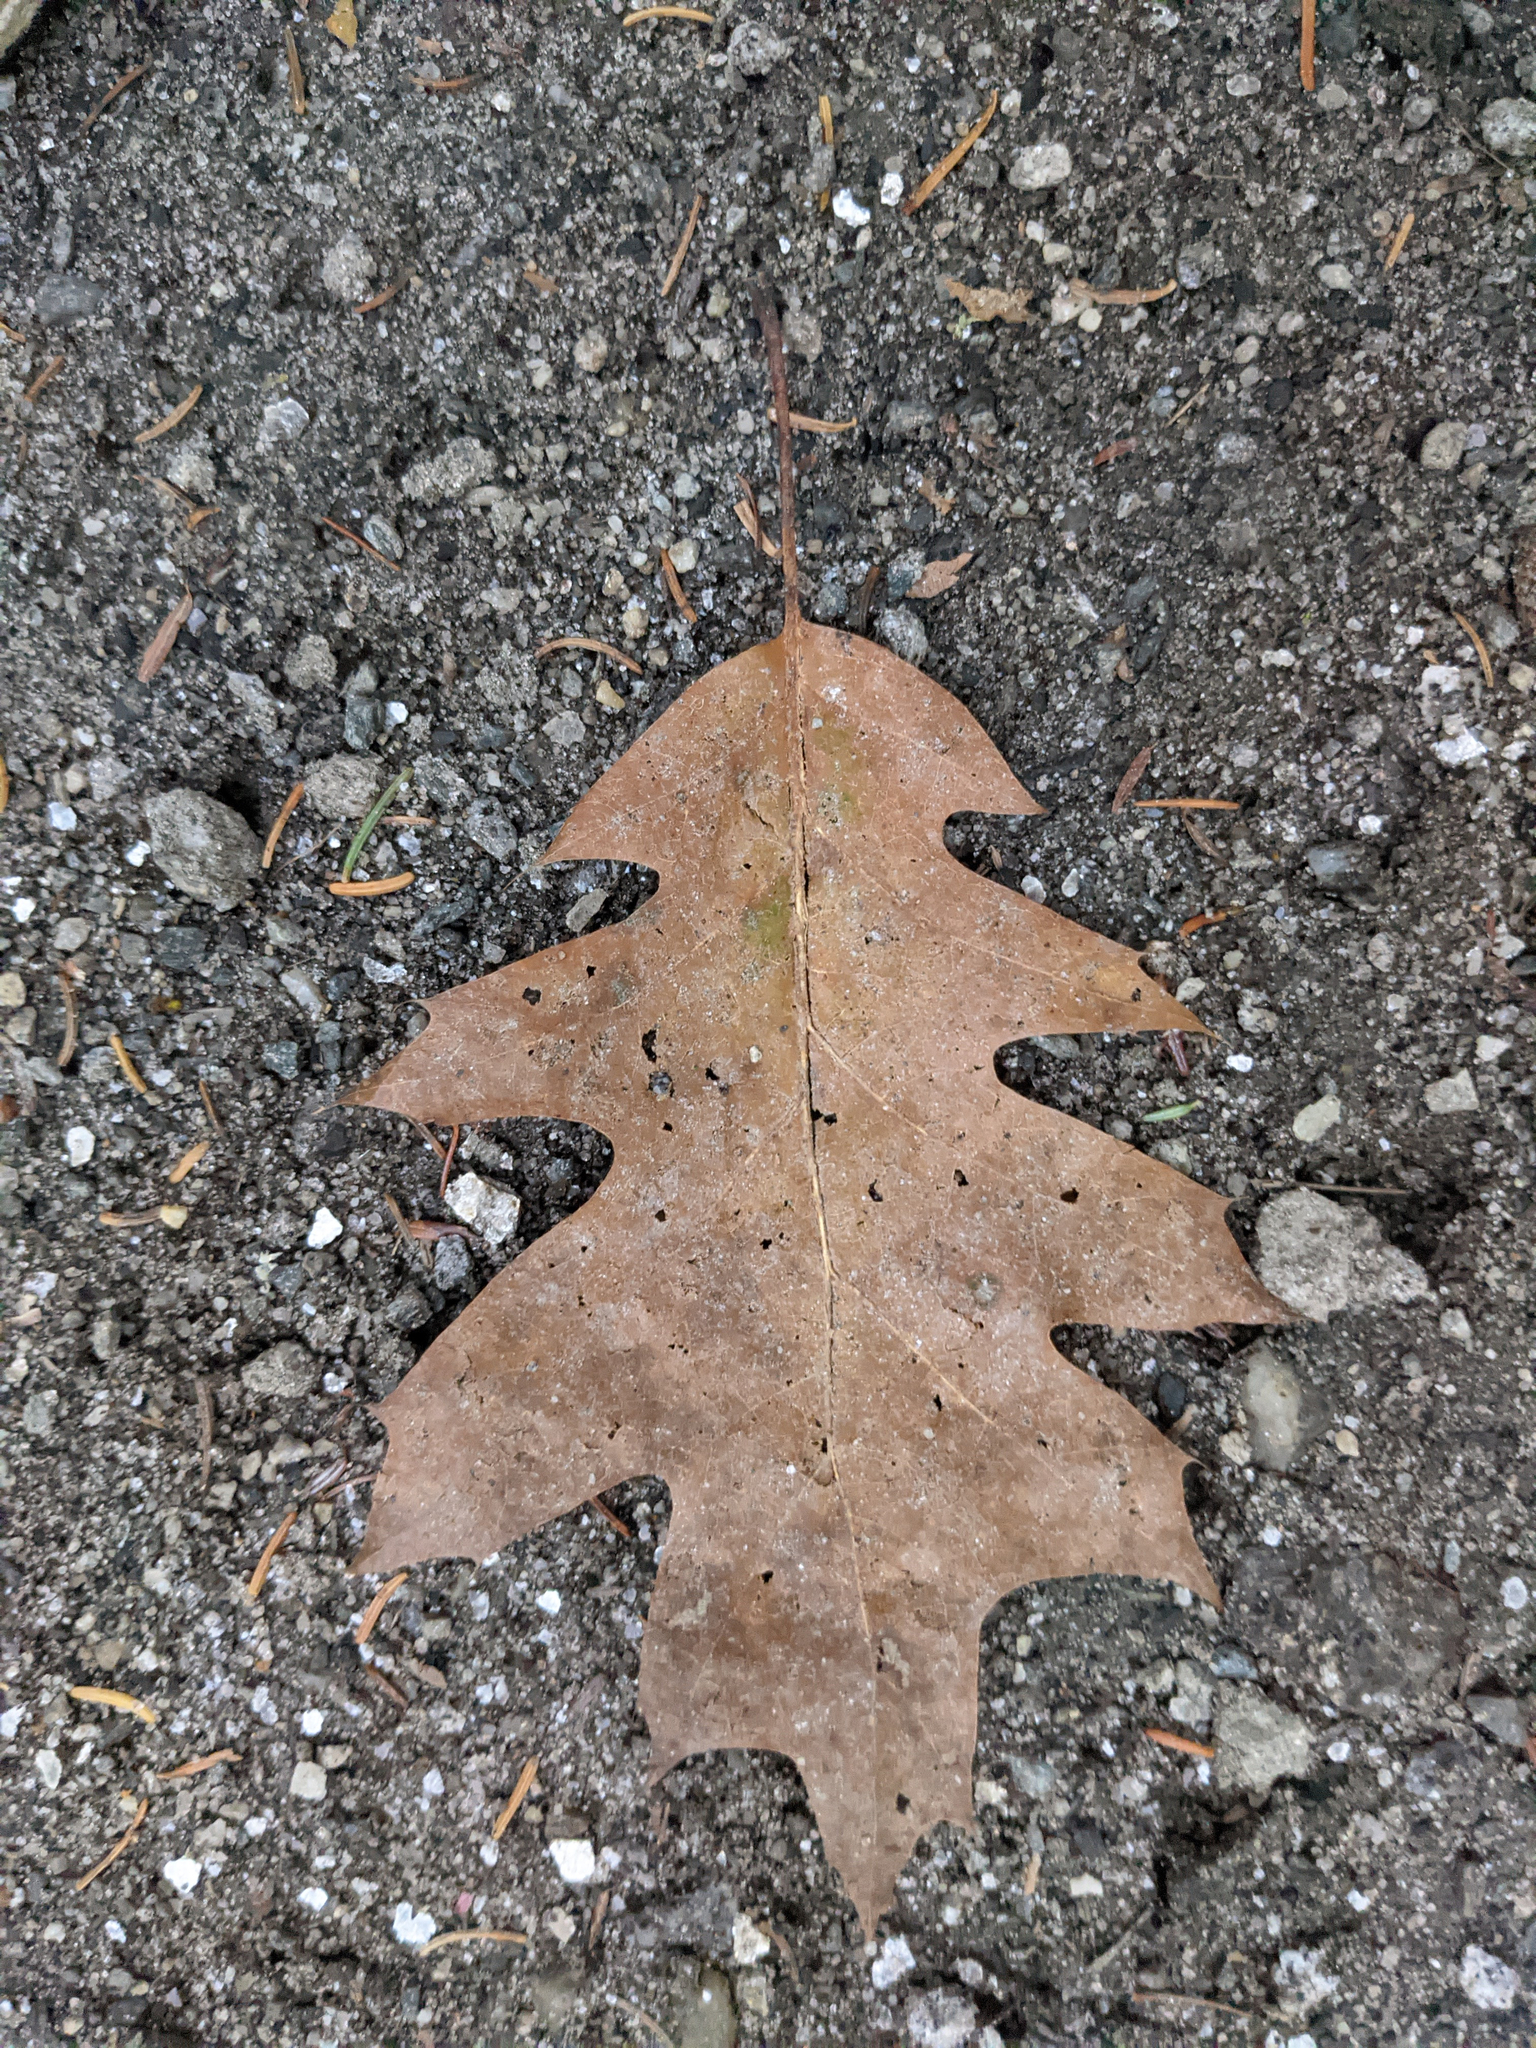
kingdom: Plantae
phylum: Tracheophyta
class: Magnoliopsida
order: Fagales
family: Fagaceae
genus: Quercus
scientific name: Quercus rubra
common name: Red oak
